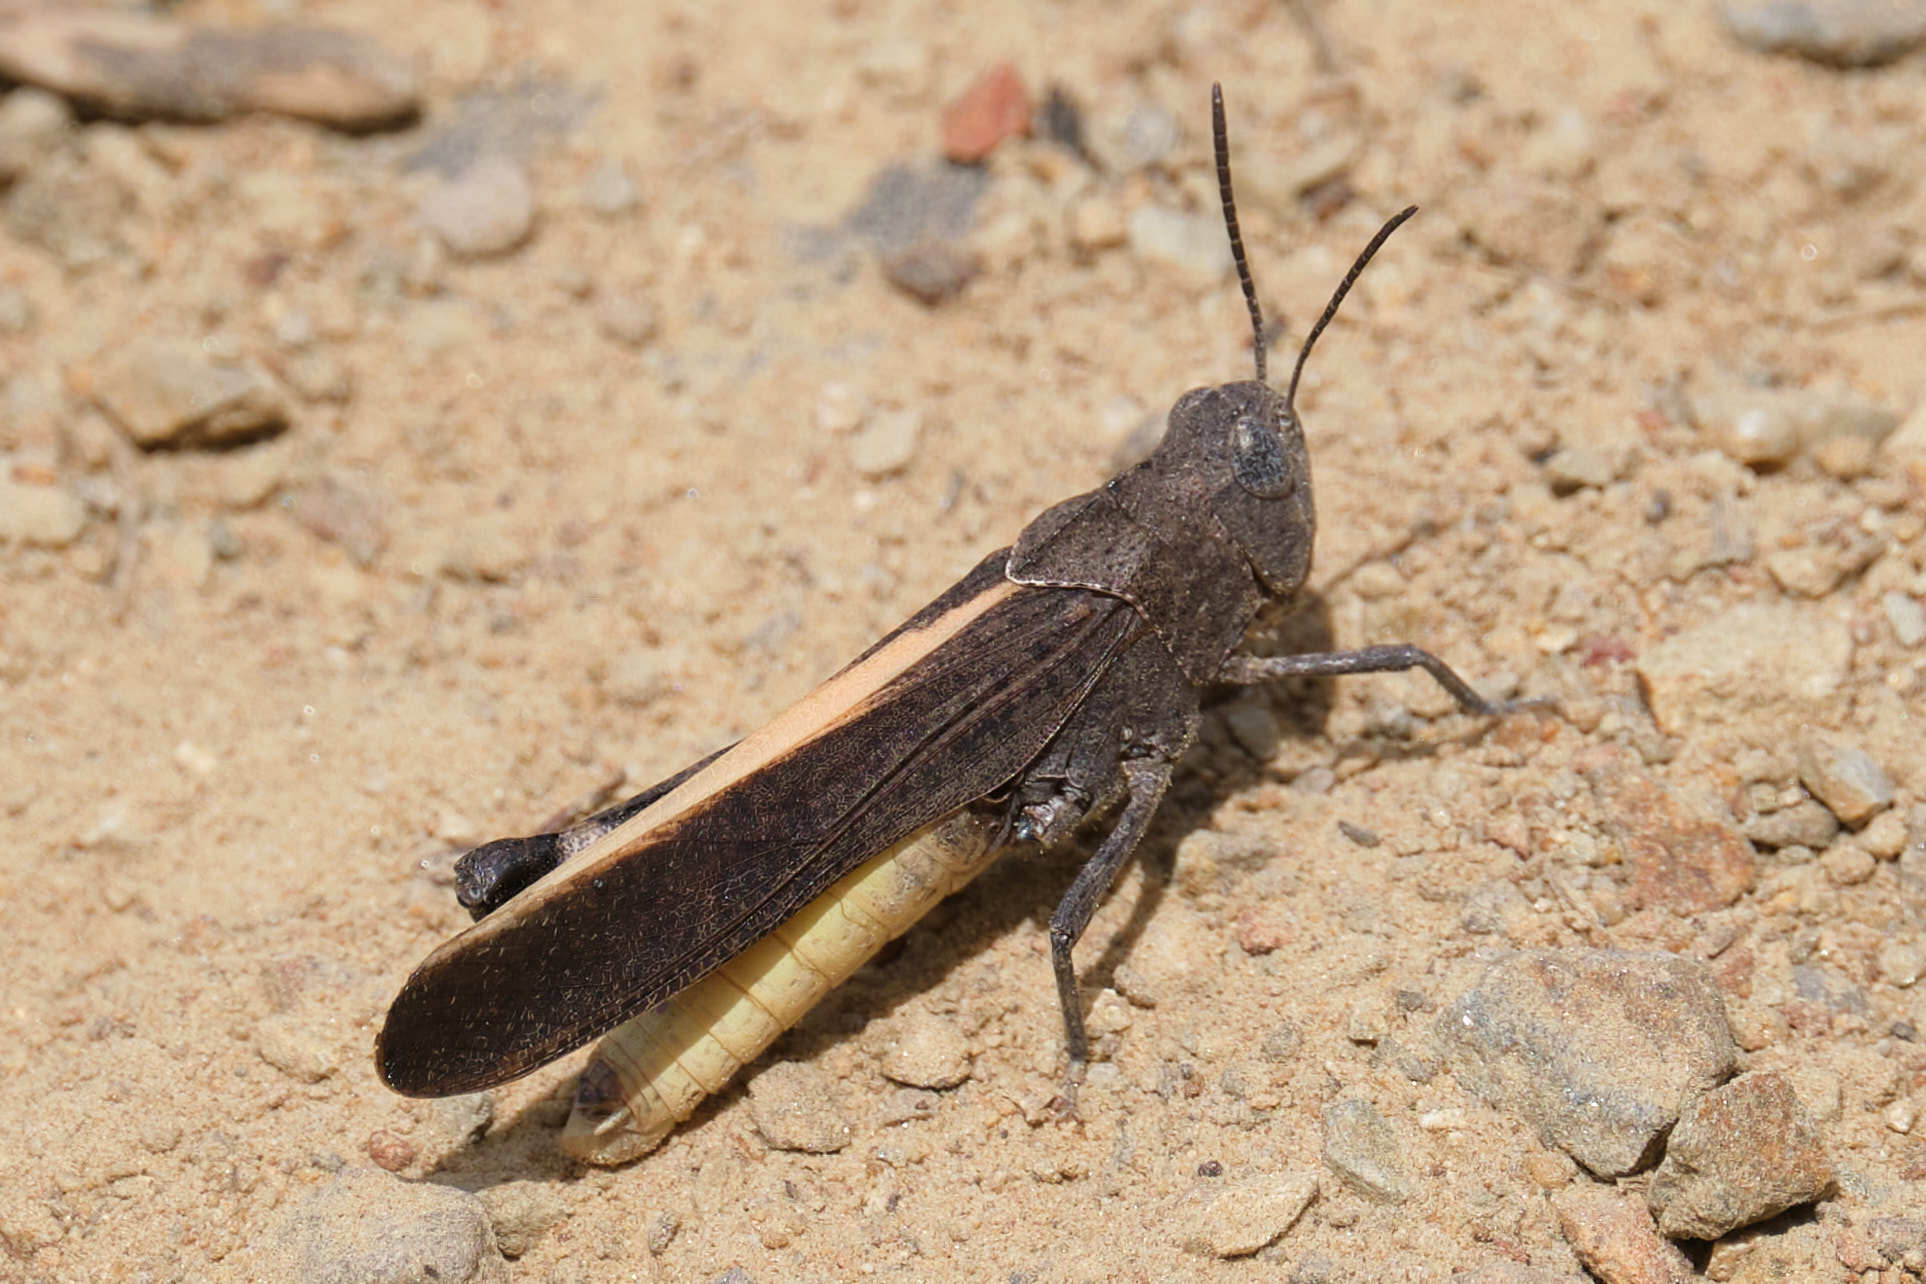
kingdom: Animalia
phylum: Arthropoda
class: Insecta
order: Orthoptera
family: Acrididae
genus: Arphia
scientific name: Arphia ramona
